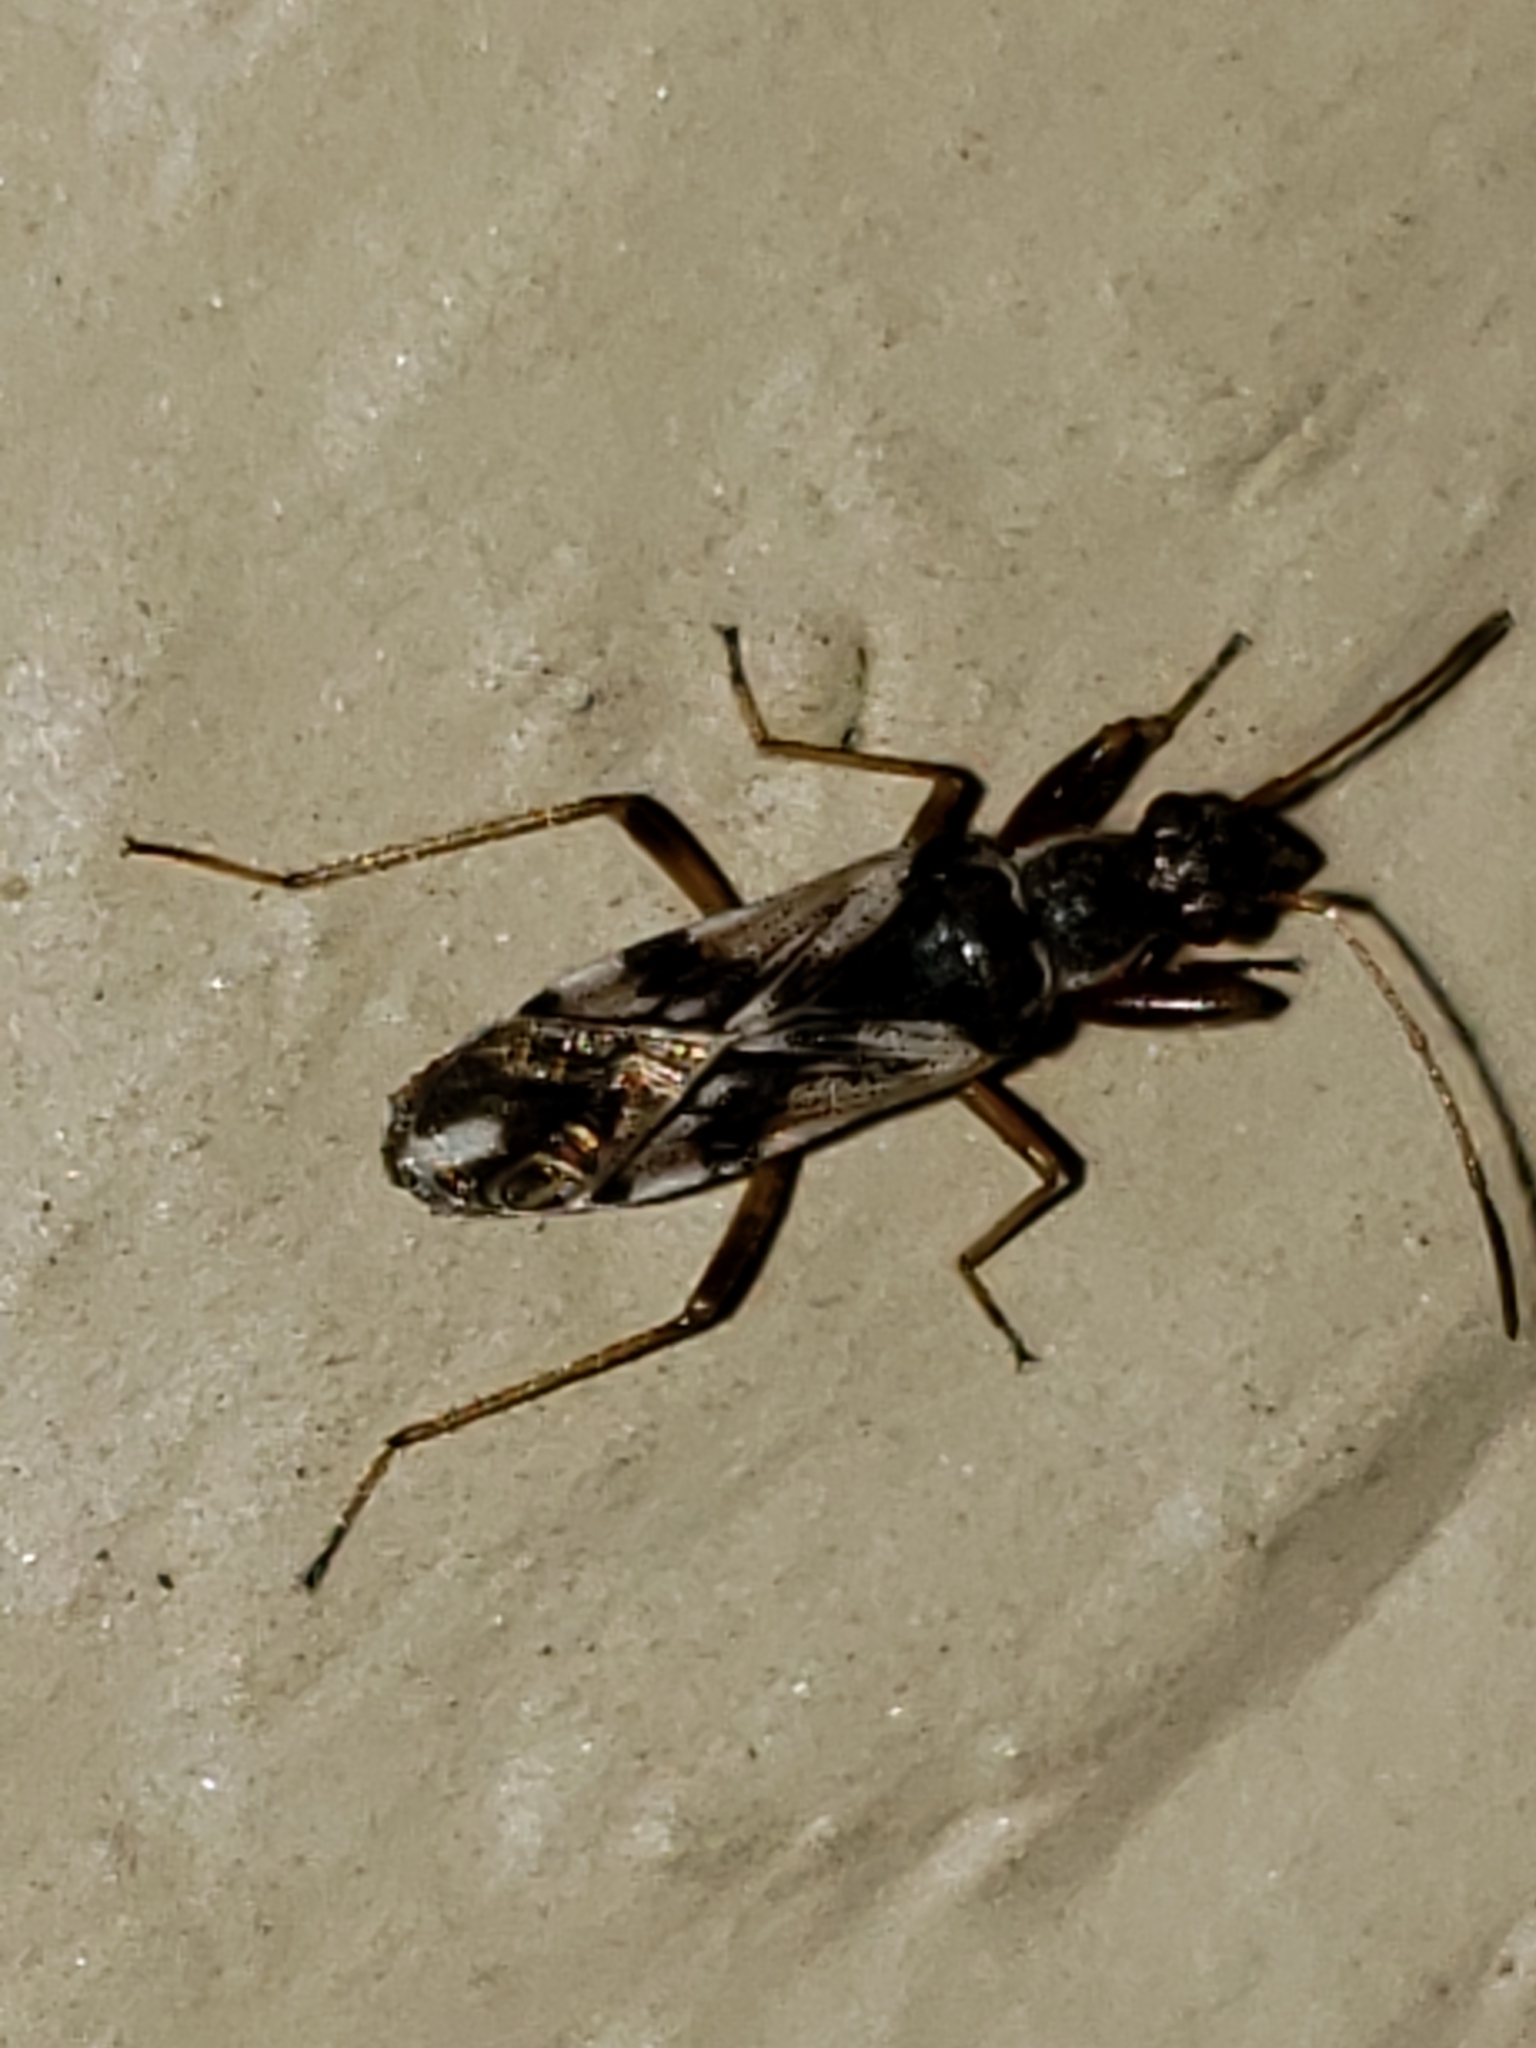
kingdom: Animalia
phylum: Arthropoda
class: Insecta
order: Hemiptera
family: Rhyparochromidae
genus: Neopamera
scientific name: Neopamera bilobata
